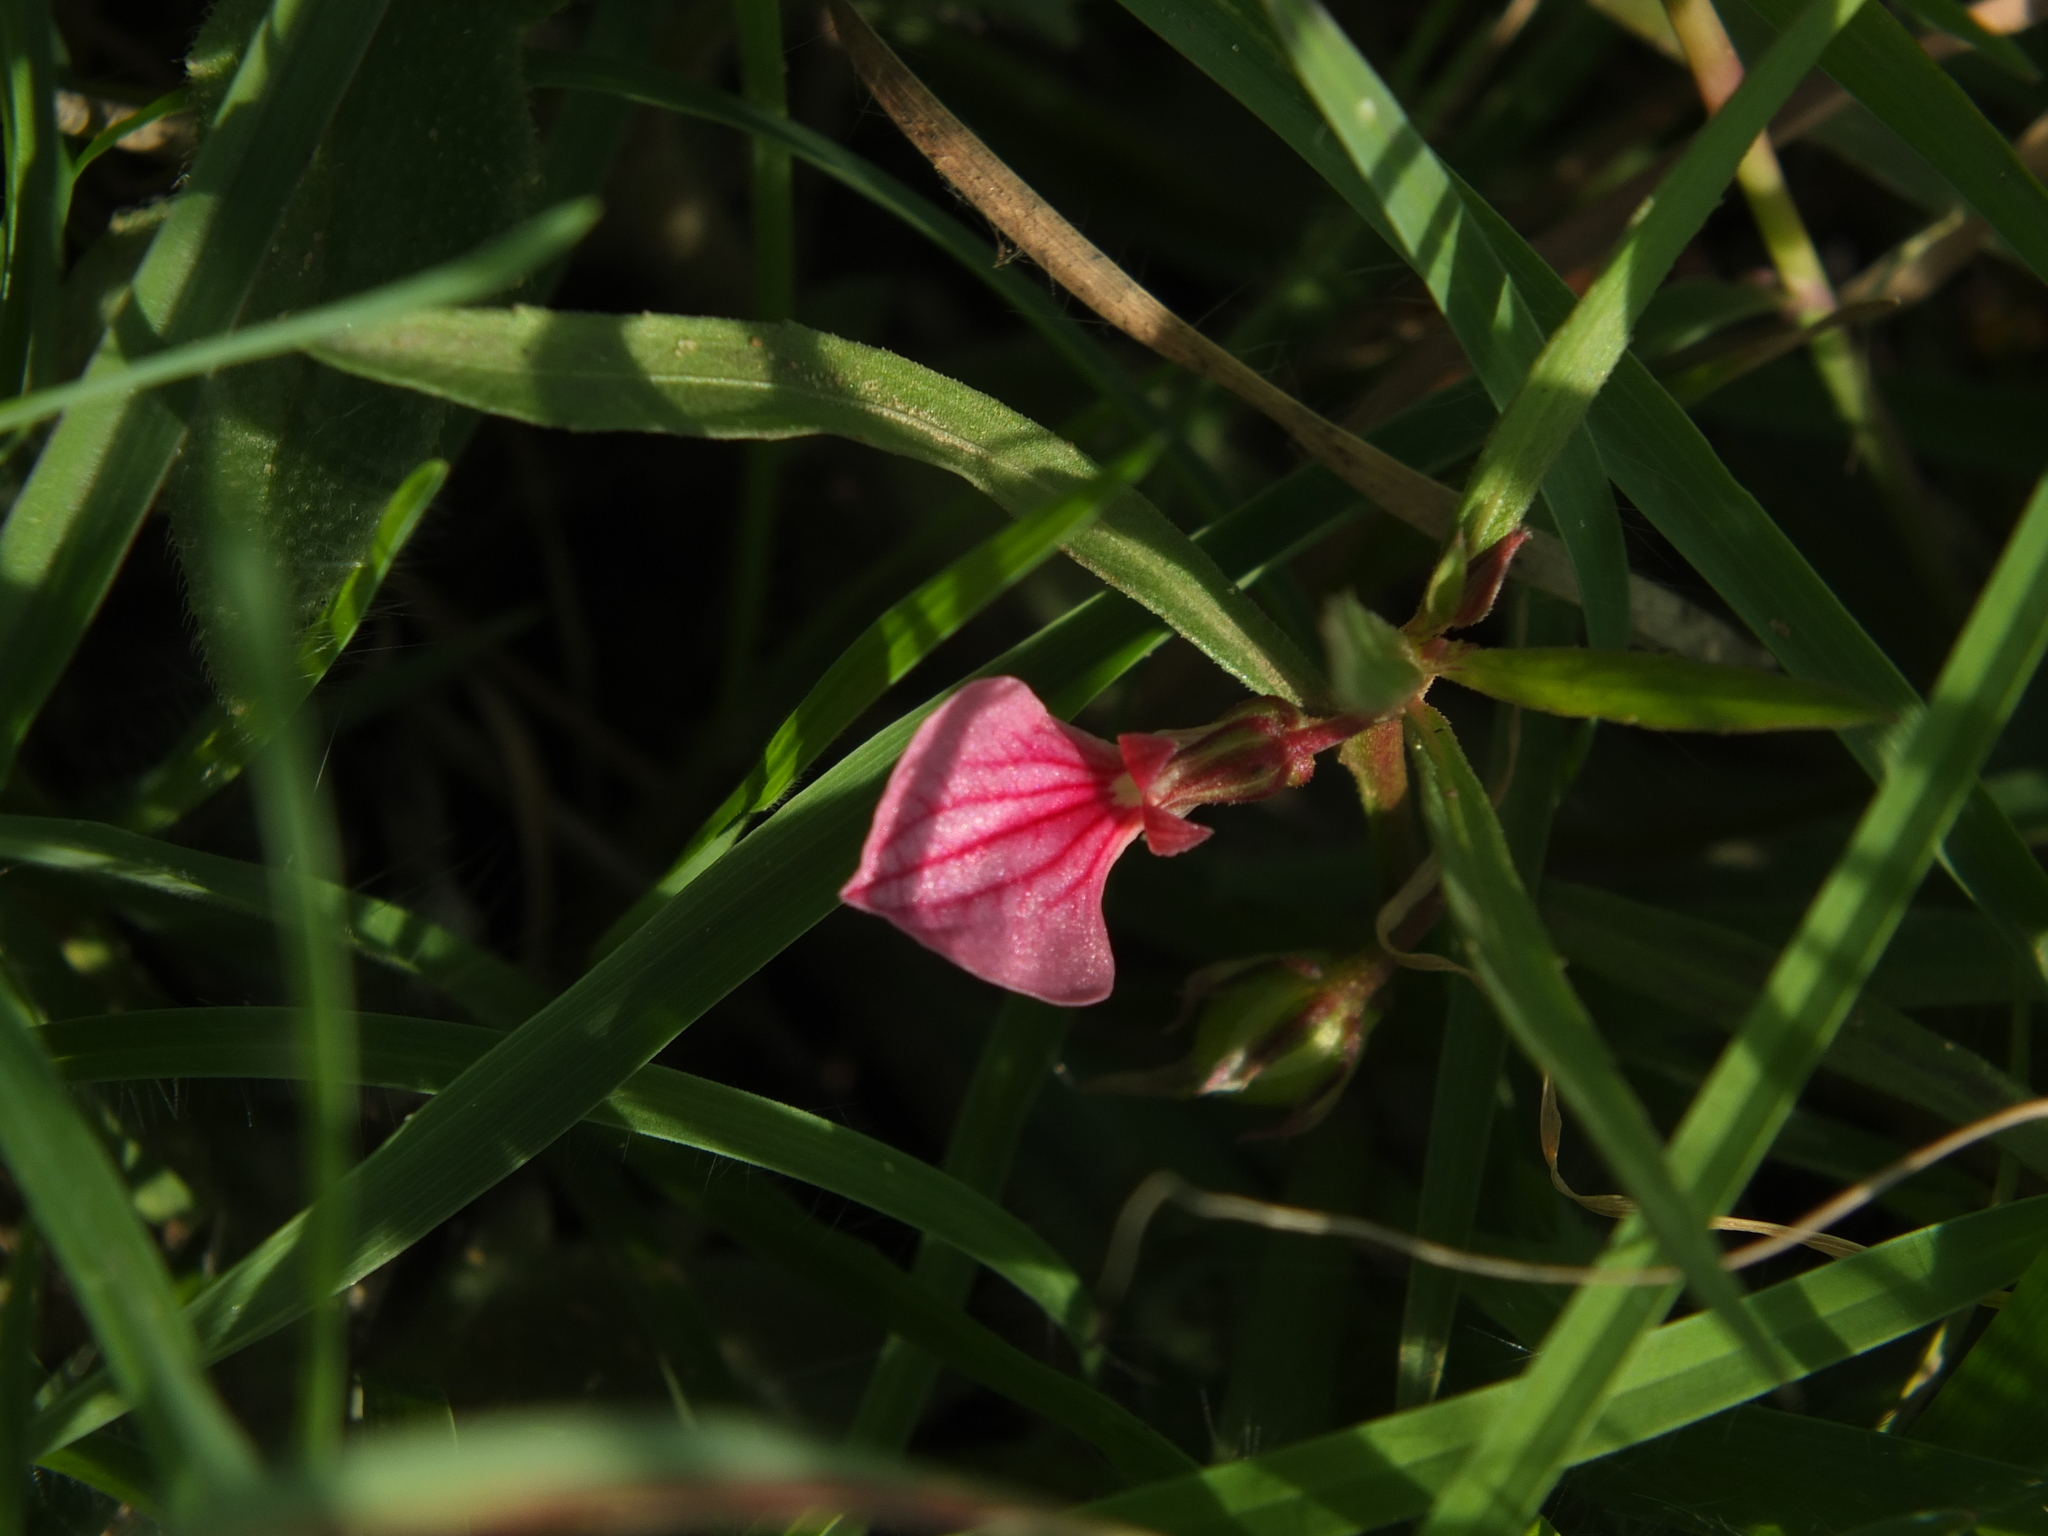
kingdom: Plantae
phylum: Tracheophyta
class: Magnoliopsida
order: Malpighiales
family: Violaceae
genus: Pigea
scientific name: Pigea enneasperma
